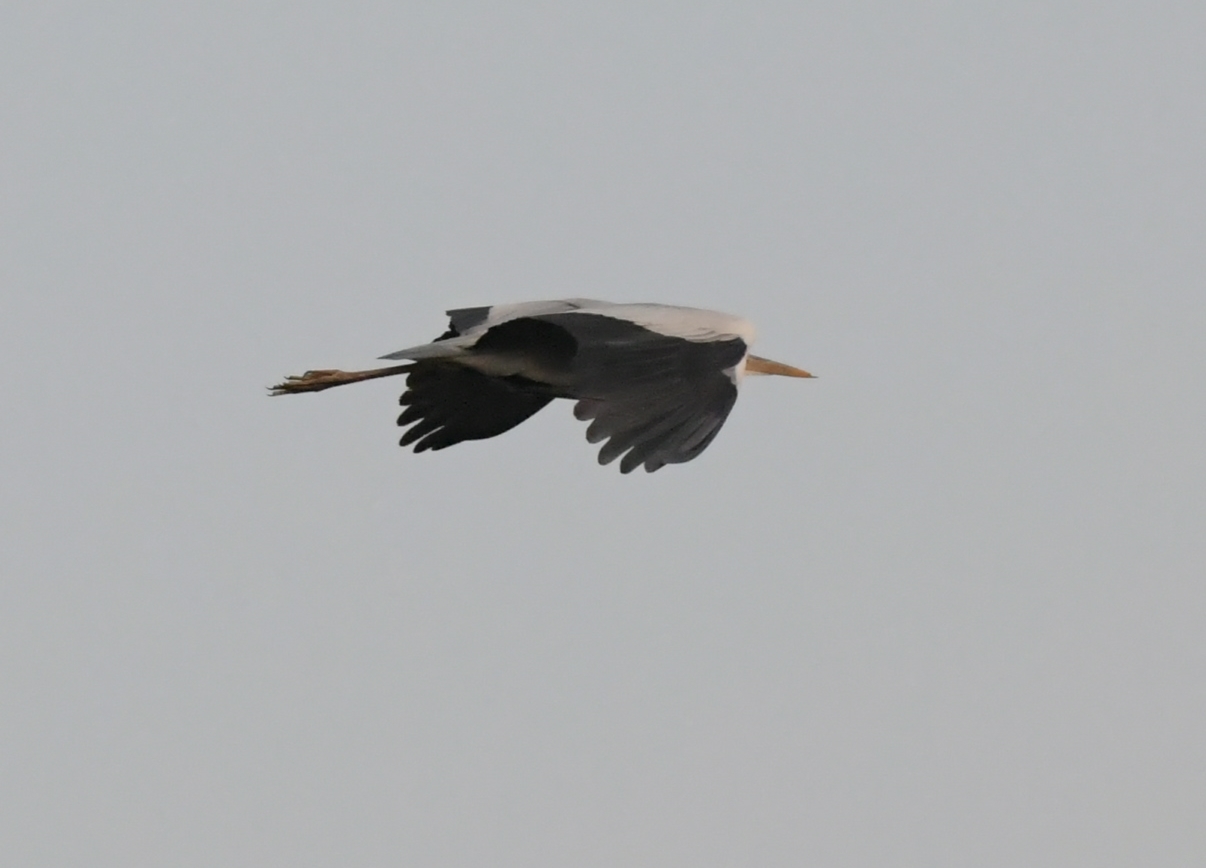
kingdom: Animalia
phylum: Chordata
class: Aves
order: Pelecaniformes
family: Ardeidae
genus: Ardea
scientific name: Ardea cinerea
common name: Grey heron
